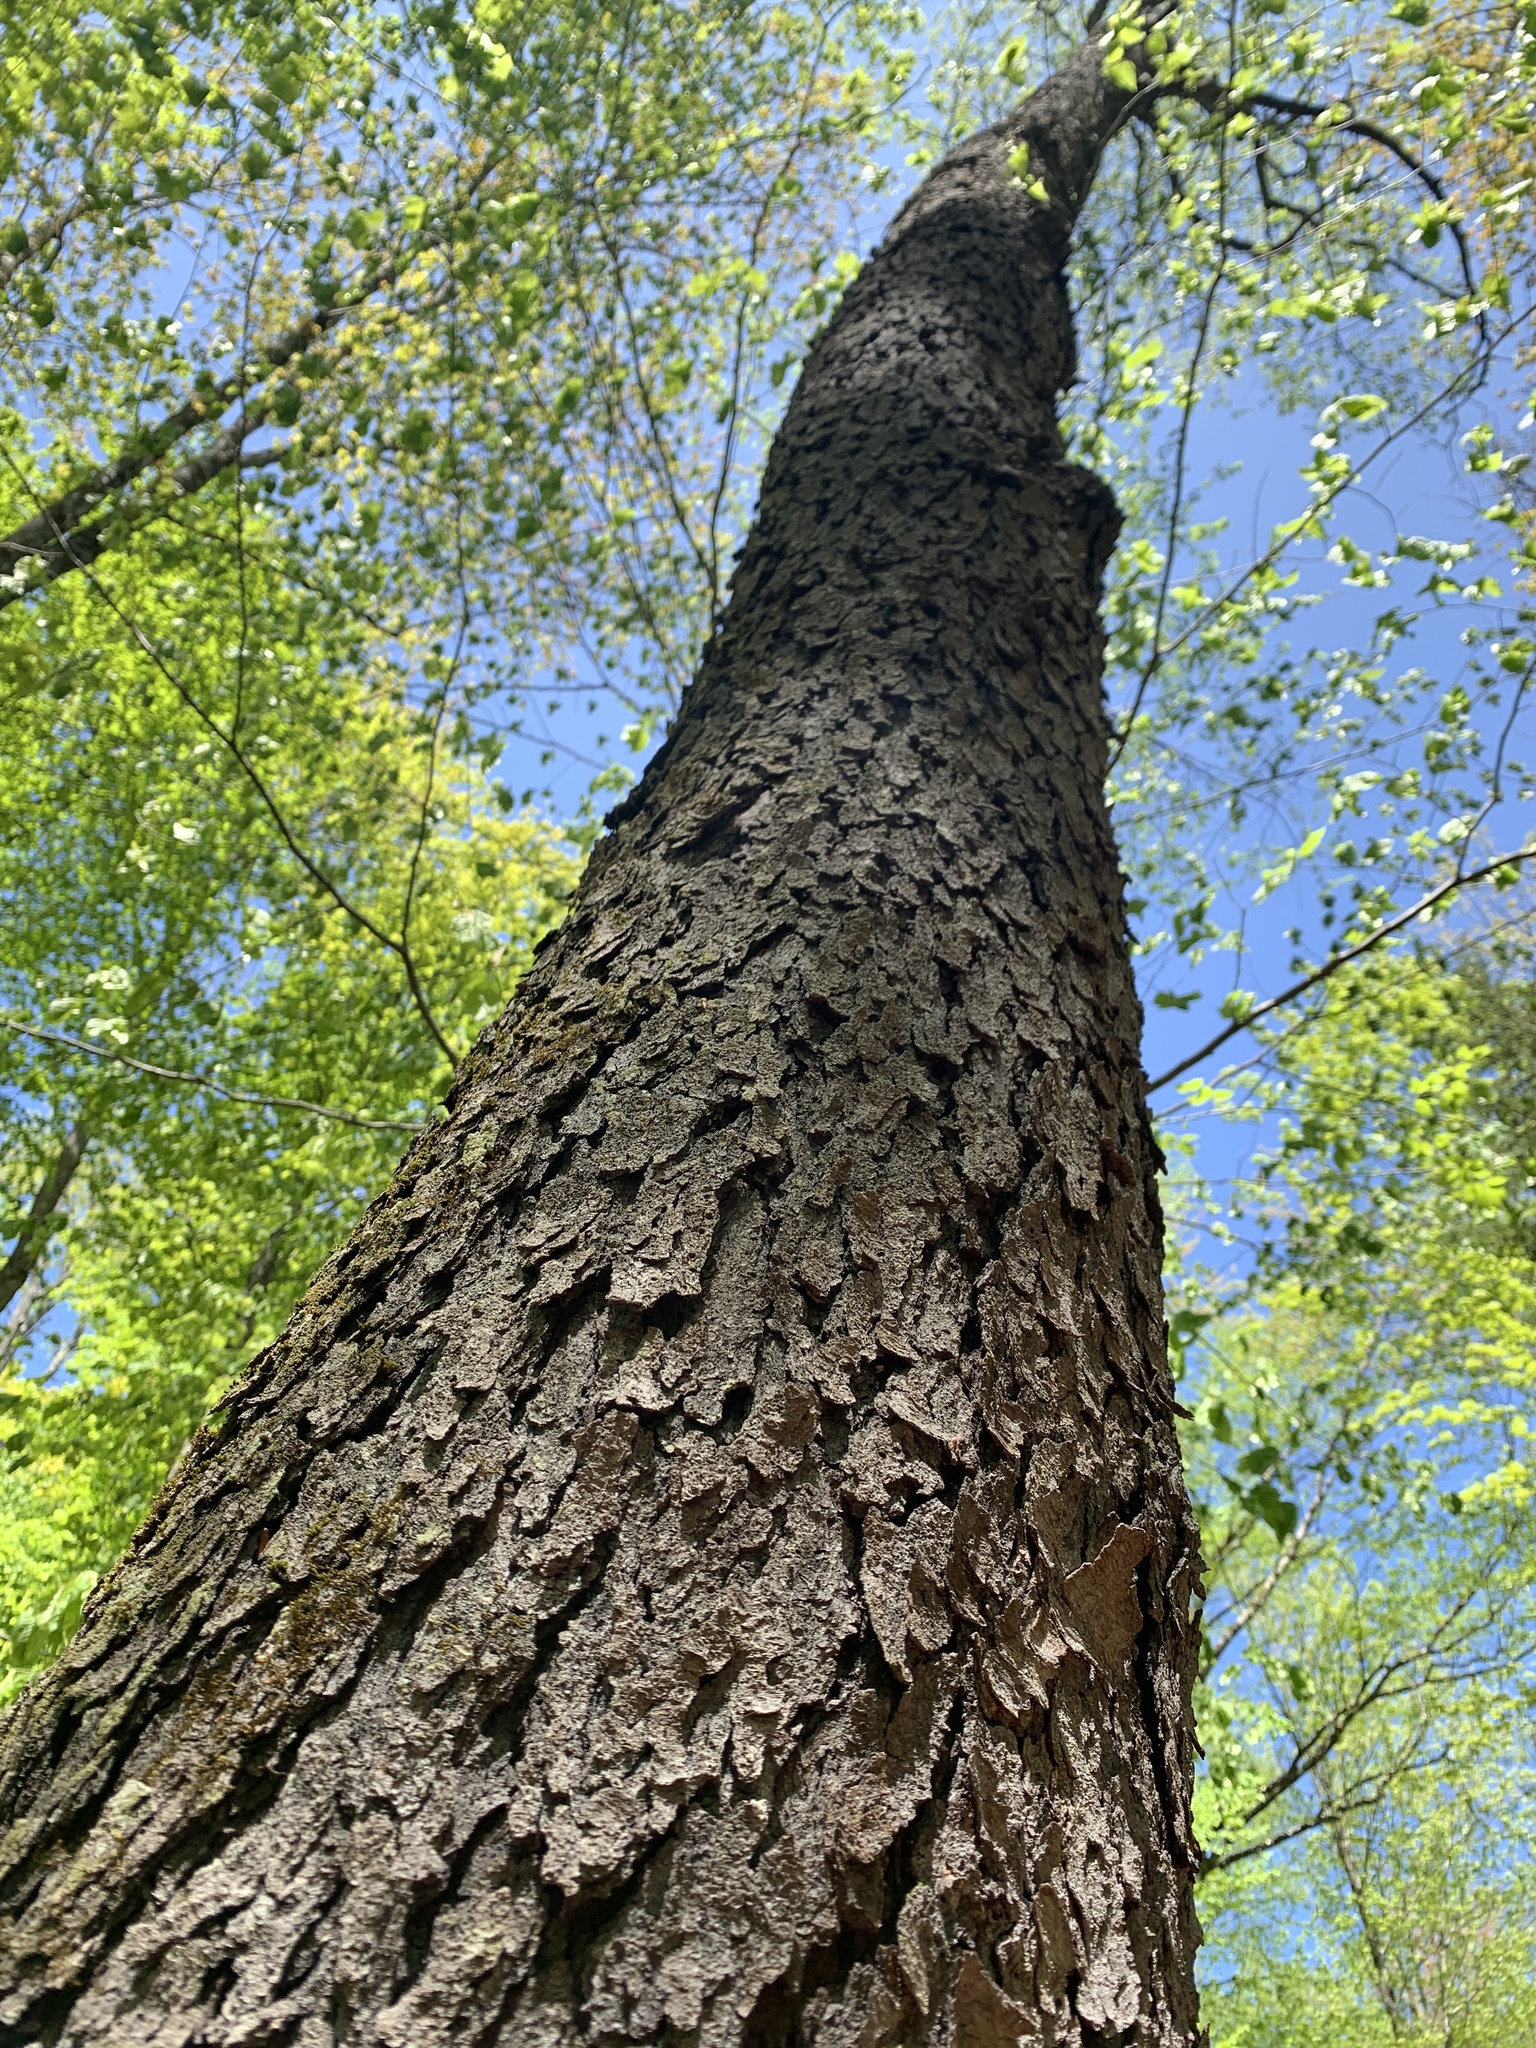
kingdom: Plantae
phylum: Tracheophyta
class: Magnoliopsida
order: Rosales
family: Rosaceae
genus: Prunus
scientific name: Prunus serotina
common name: Black cherry
